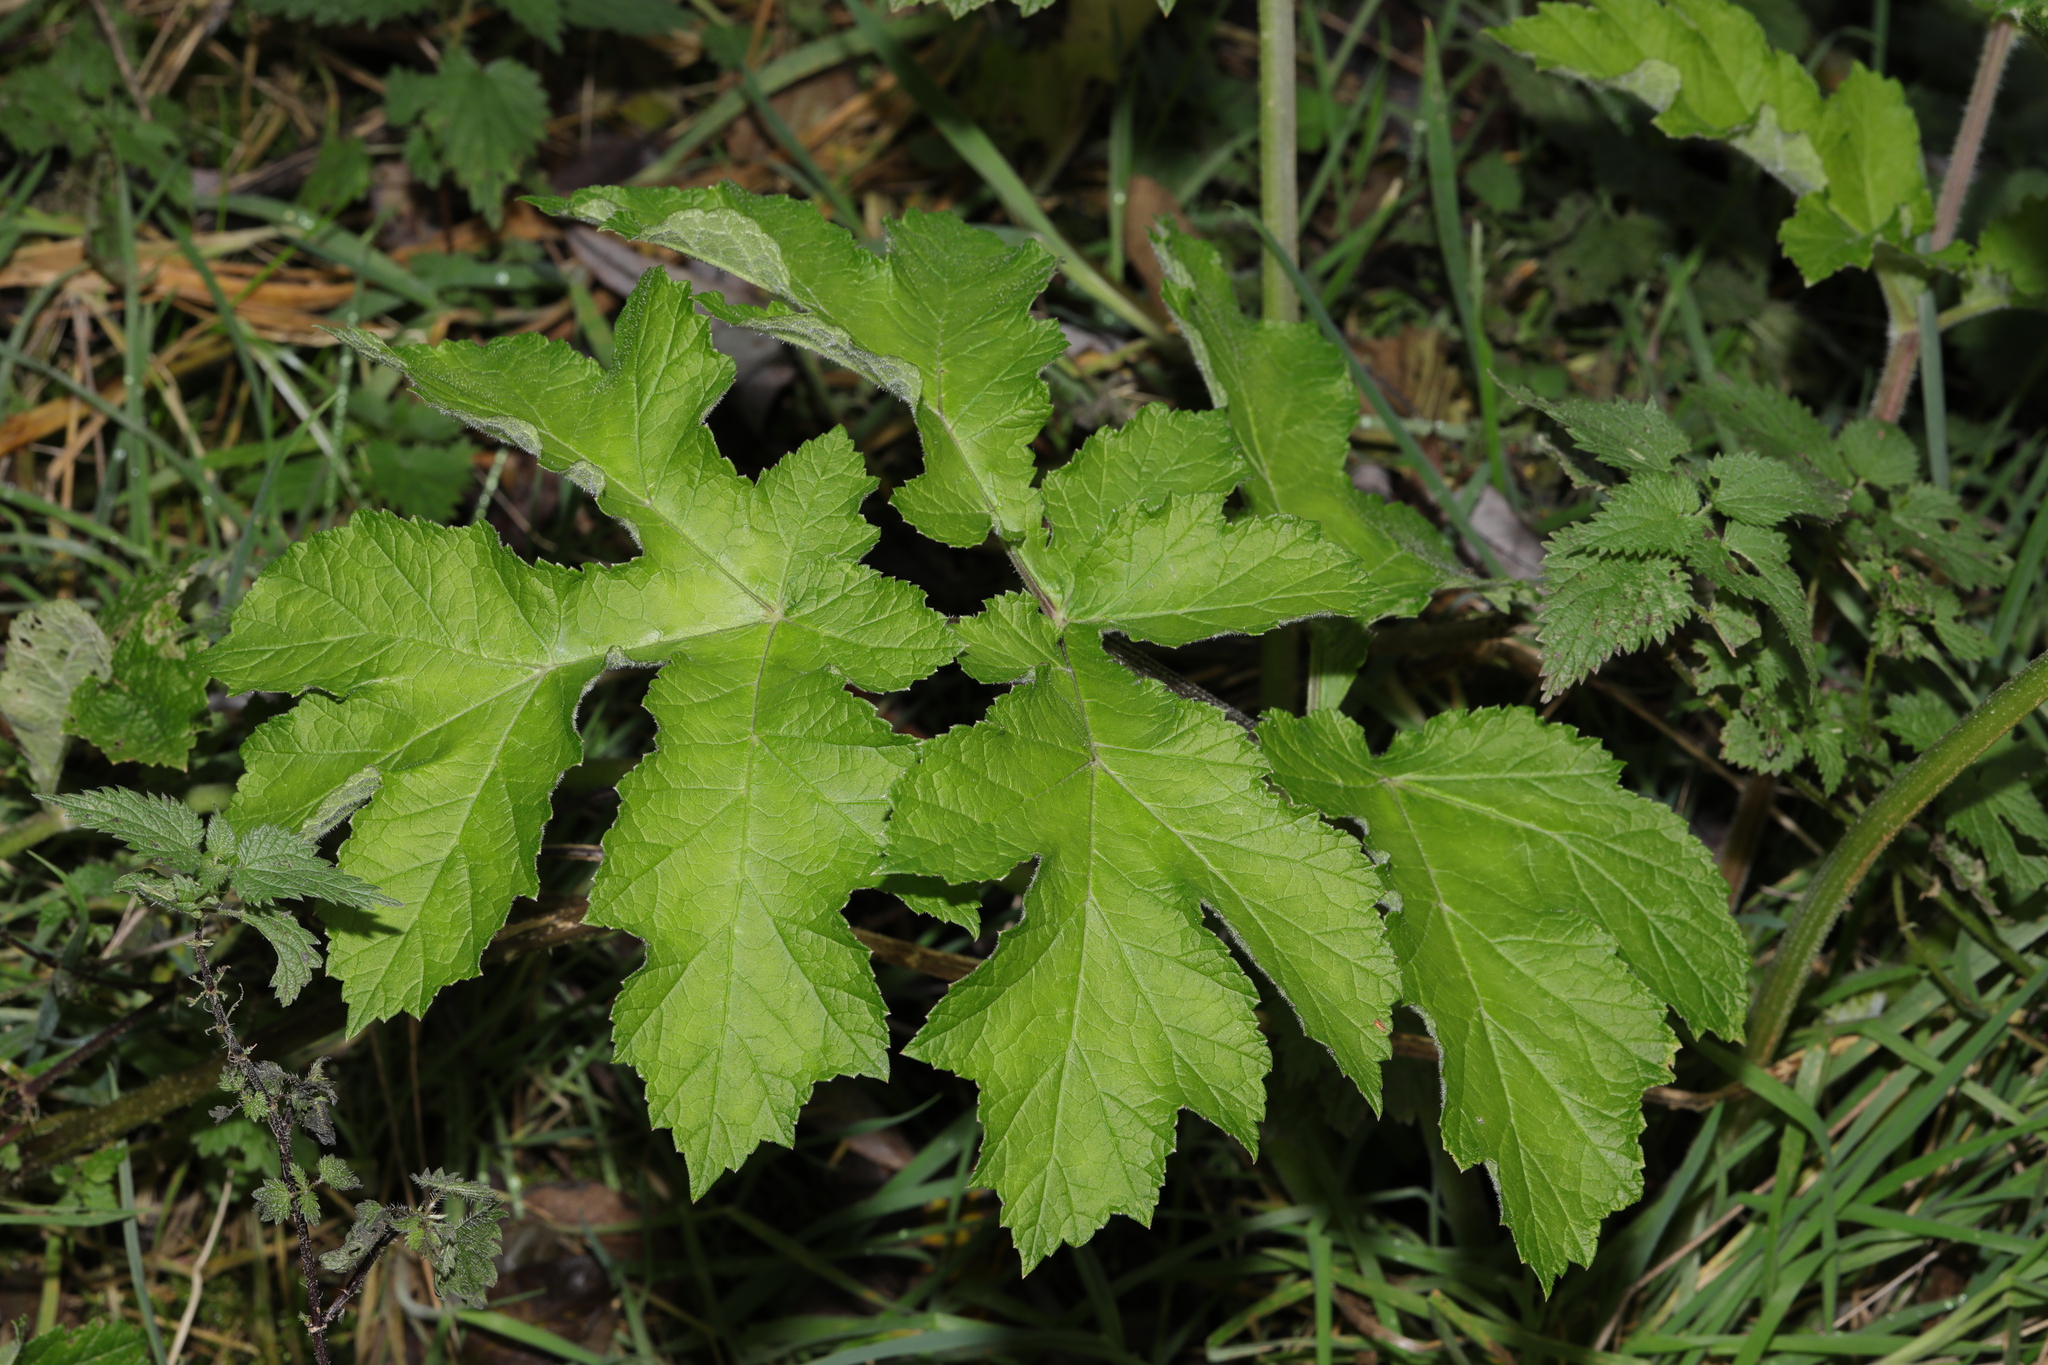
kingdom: Plantae
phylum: Tracheophyta
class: Magnoliopsida
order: Apiales
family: Apiaceae
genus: Heracleum
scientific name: Heracleum sphondylium
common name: Hogweed
